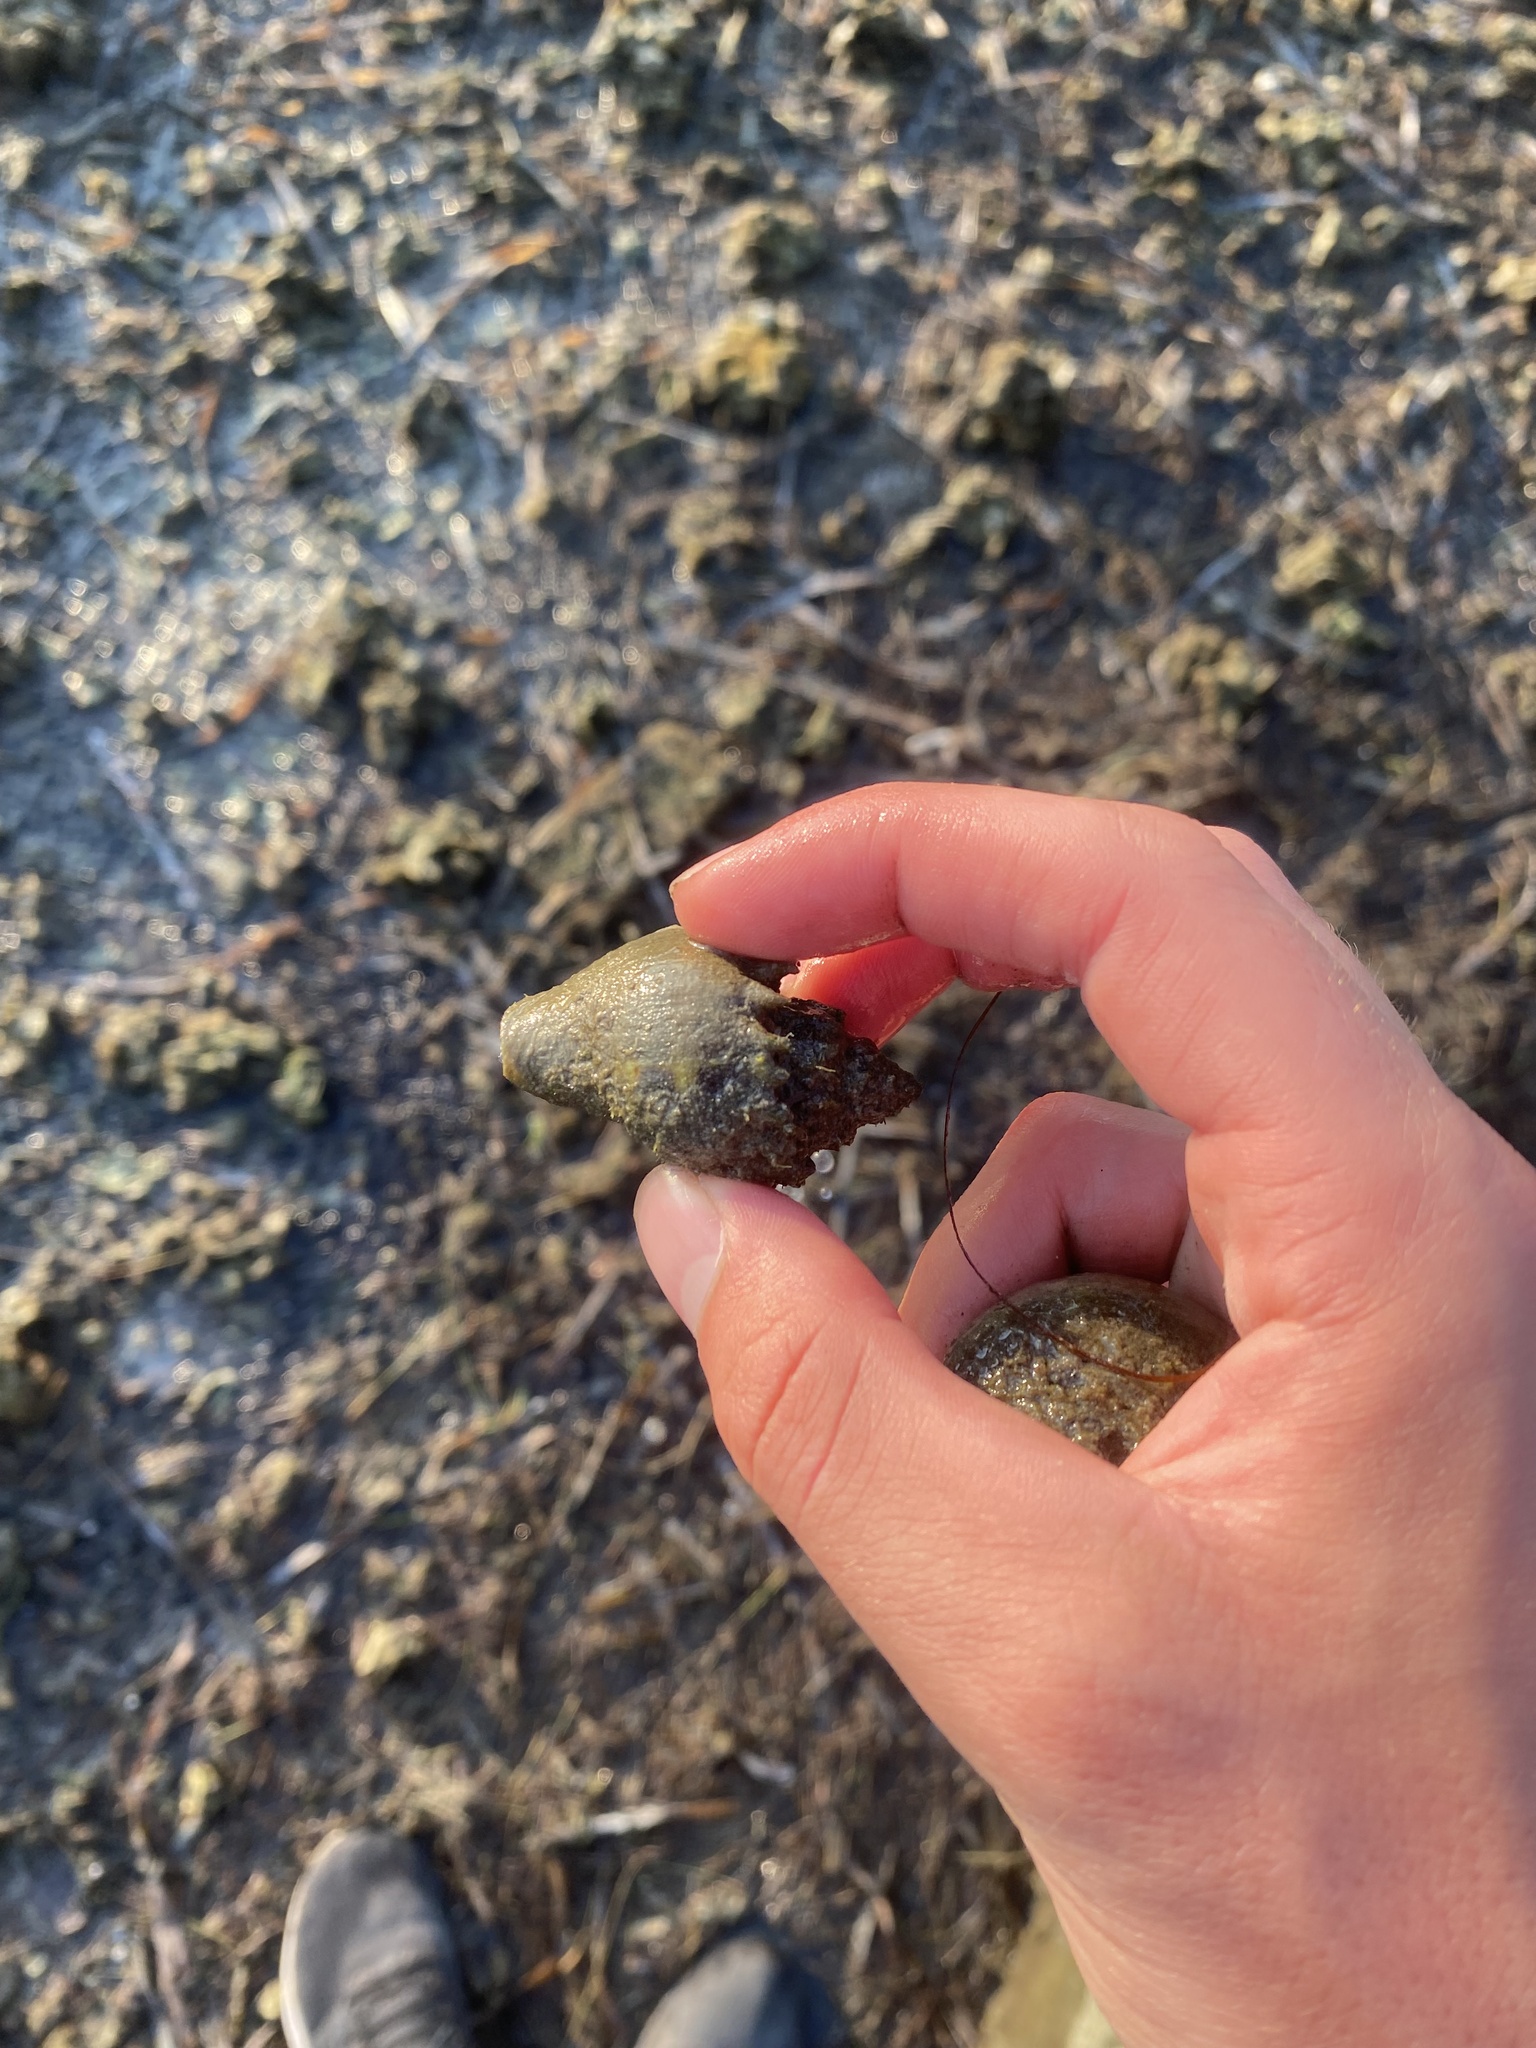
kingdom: Animalia
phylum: Mollusca
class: Gastropoda
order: Neogastropoda
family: Melongenidae
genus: Melongena
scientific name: Melongena corona
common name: American crown conch
